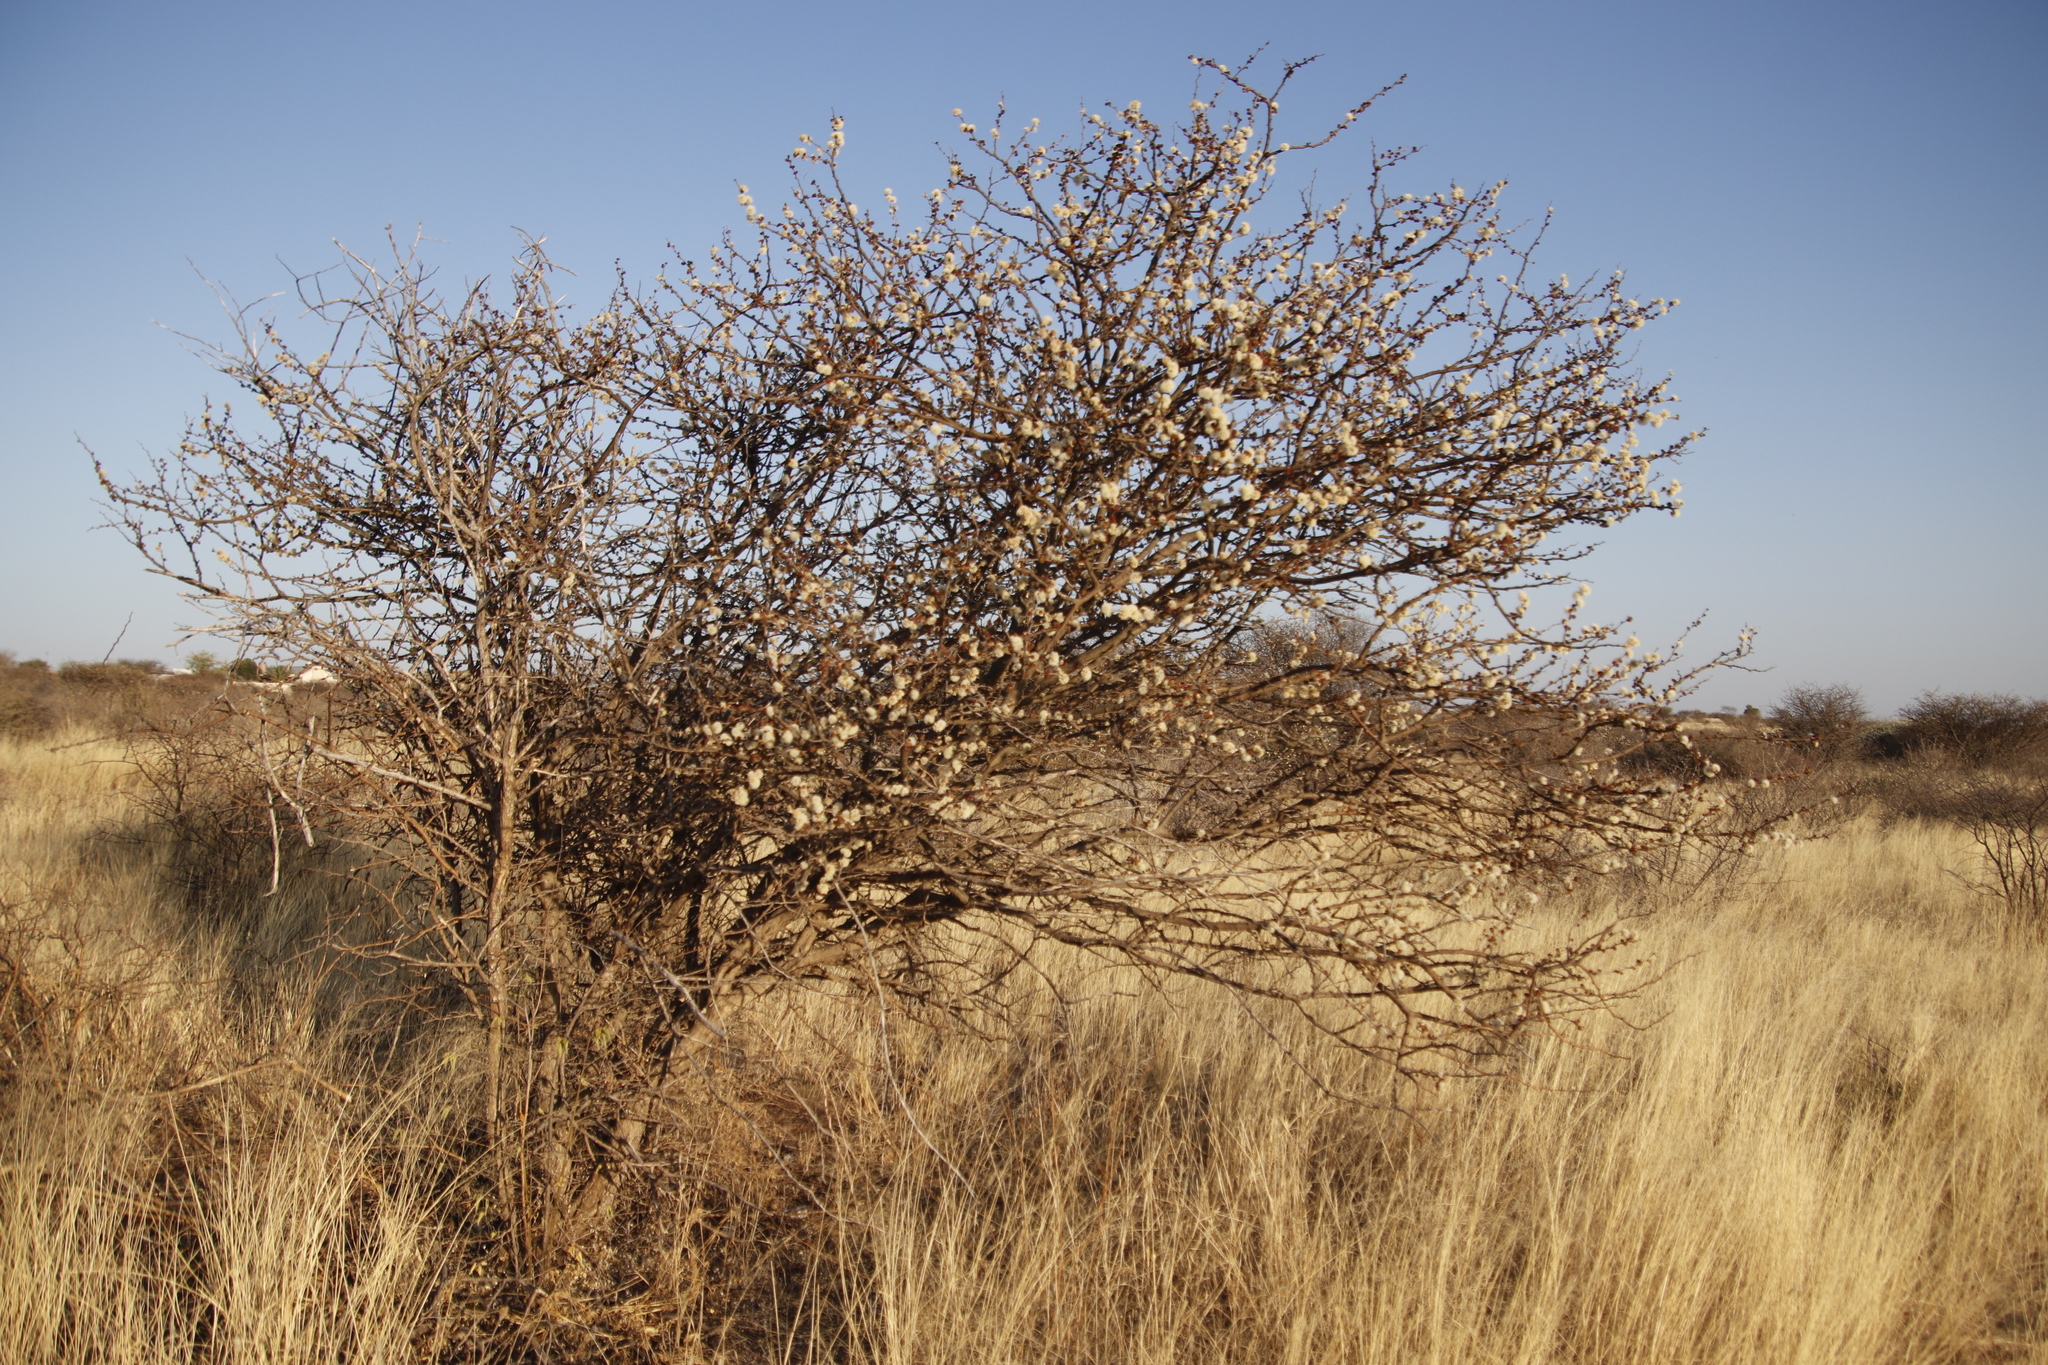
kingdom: Plantae
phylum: Tracheophyta
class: Magnoliopsida
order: Fabales
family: Fabaceae
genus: Senegalia
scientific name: Senegalia mellifera
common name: Hookthorn
